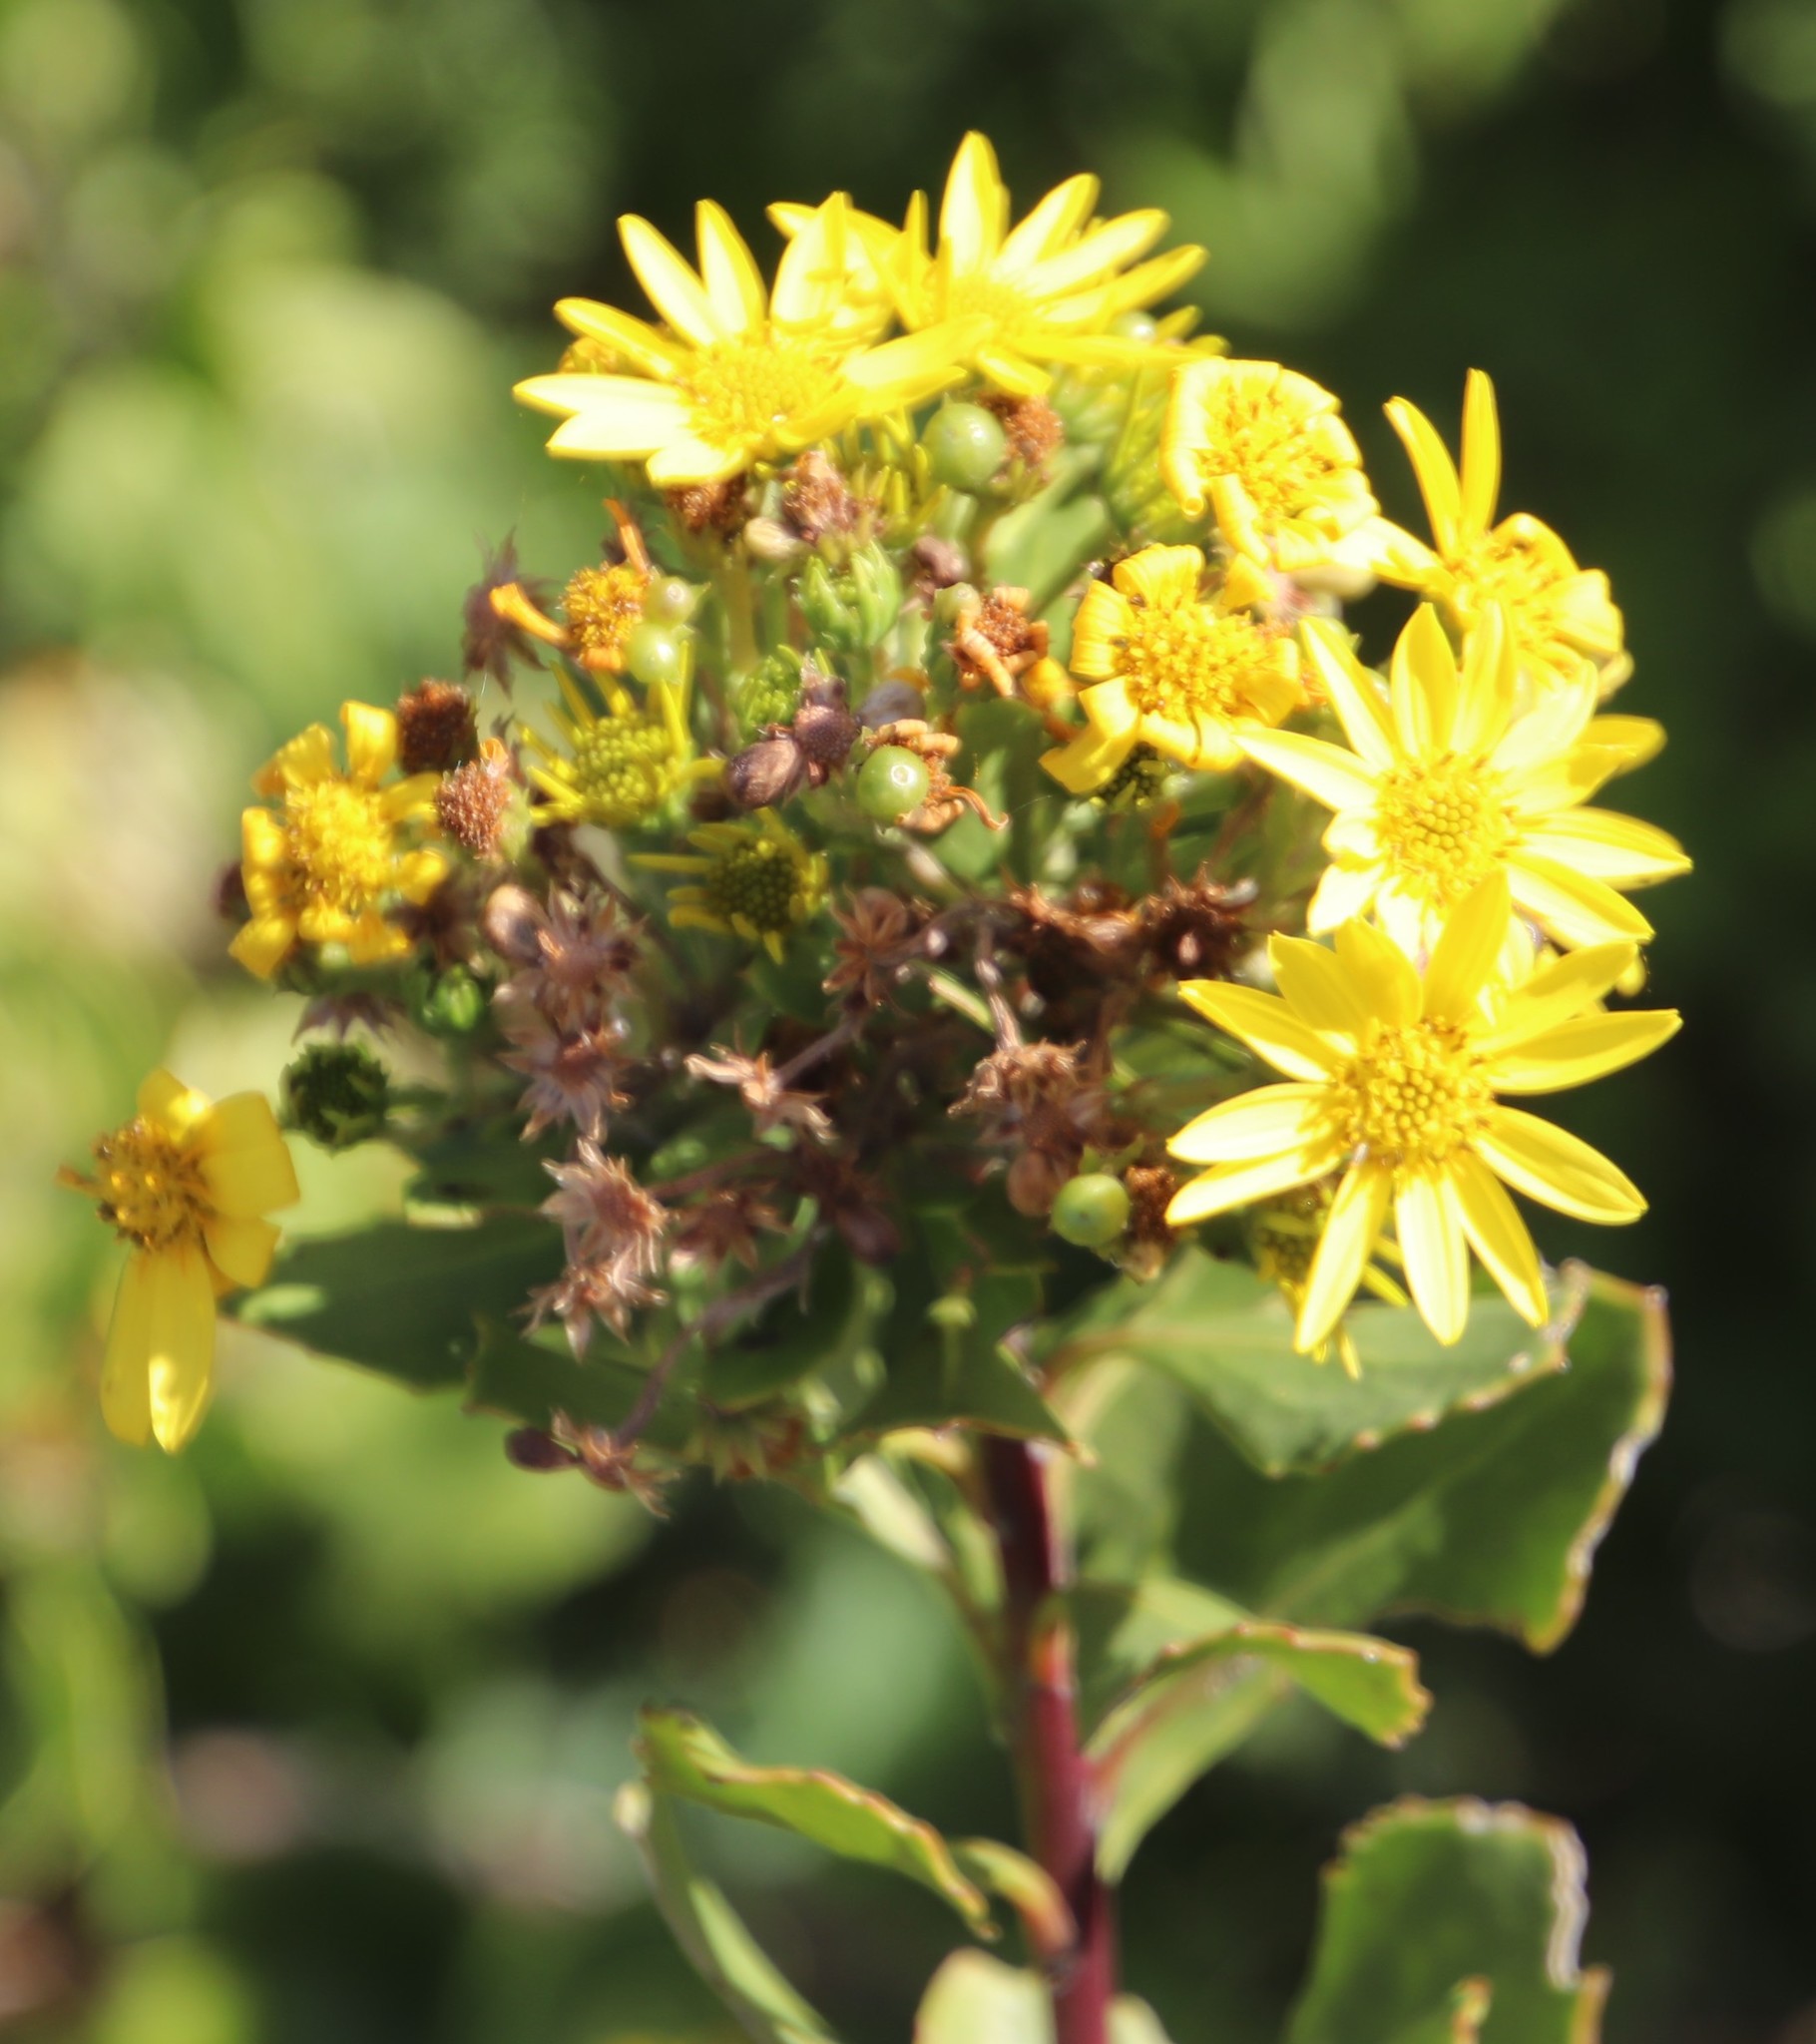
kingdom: Plantae
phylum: Tracheophyta
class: Magnoliopsida
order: Asterales
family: Asteraceae
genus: Osteospermum
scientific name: Osteospermum moniliferum
